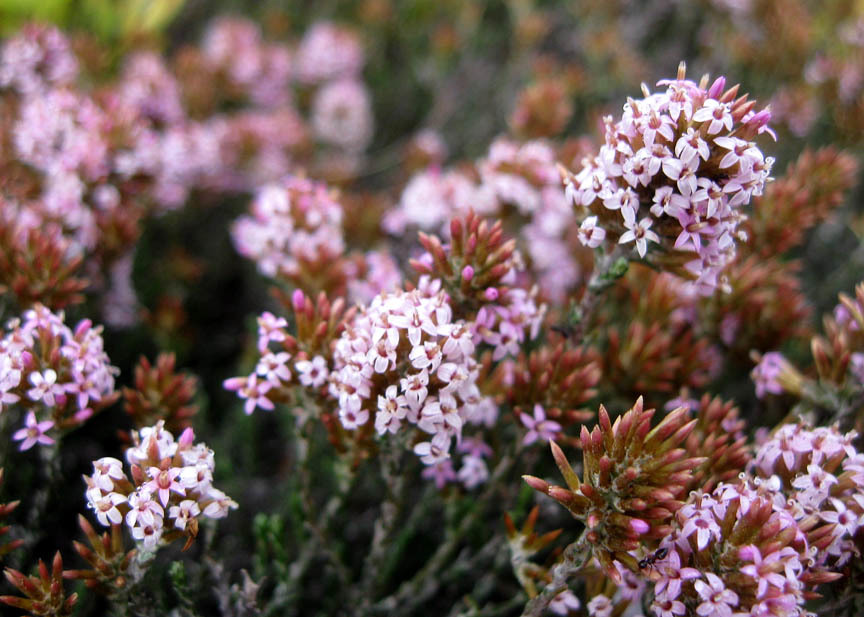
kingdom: Plantae
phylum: Tracheophyta
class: Magnoliopsida
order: Asterales
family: Asteraceae
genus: Stoebe
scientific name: Stoebe fusca
